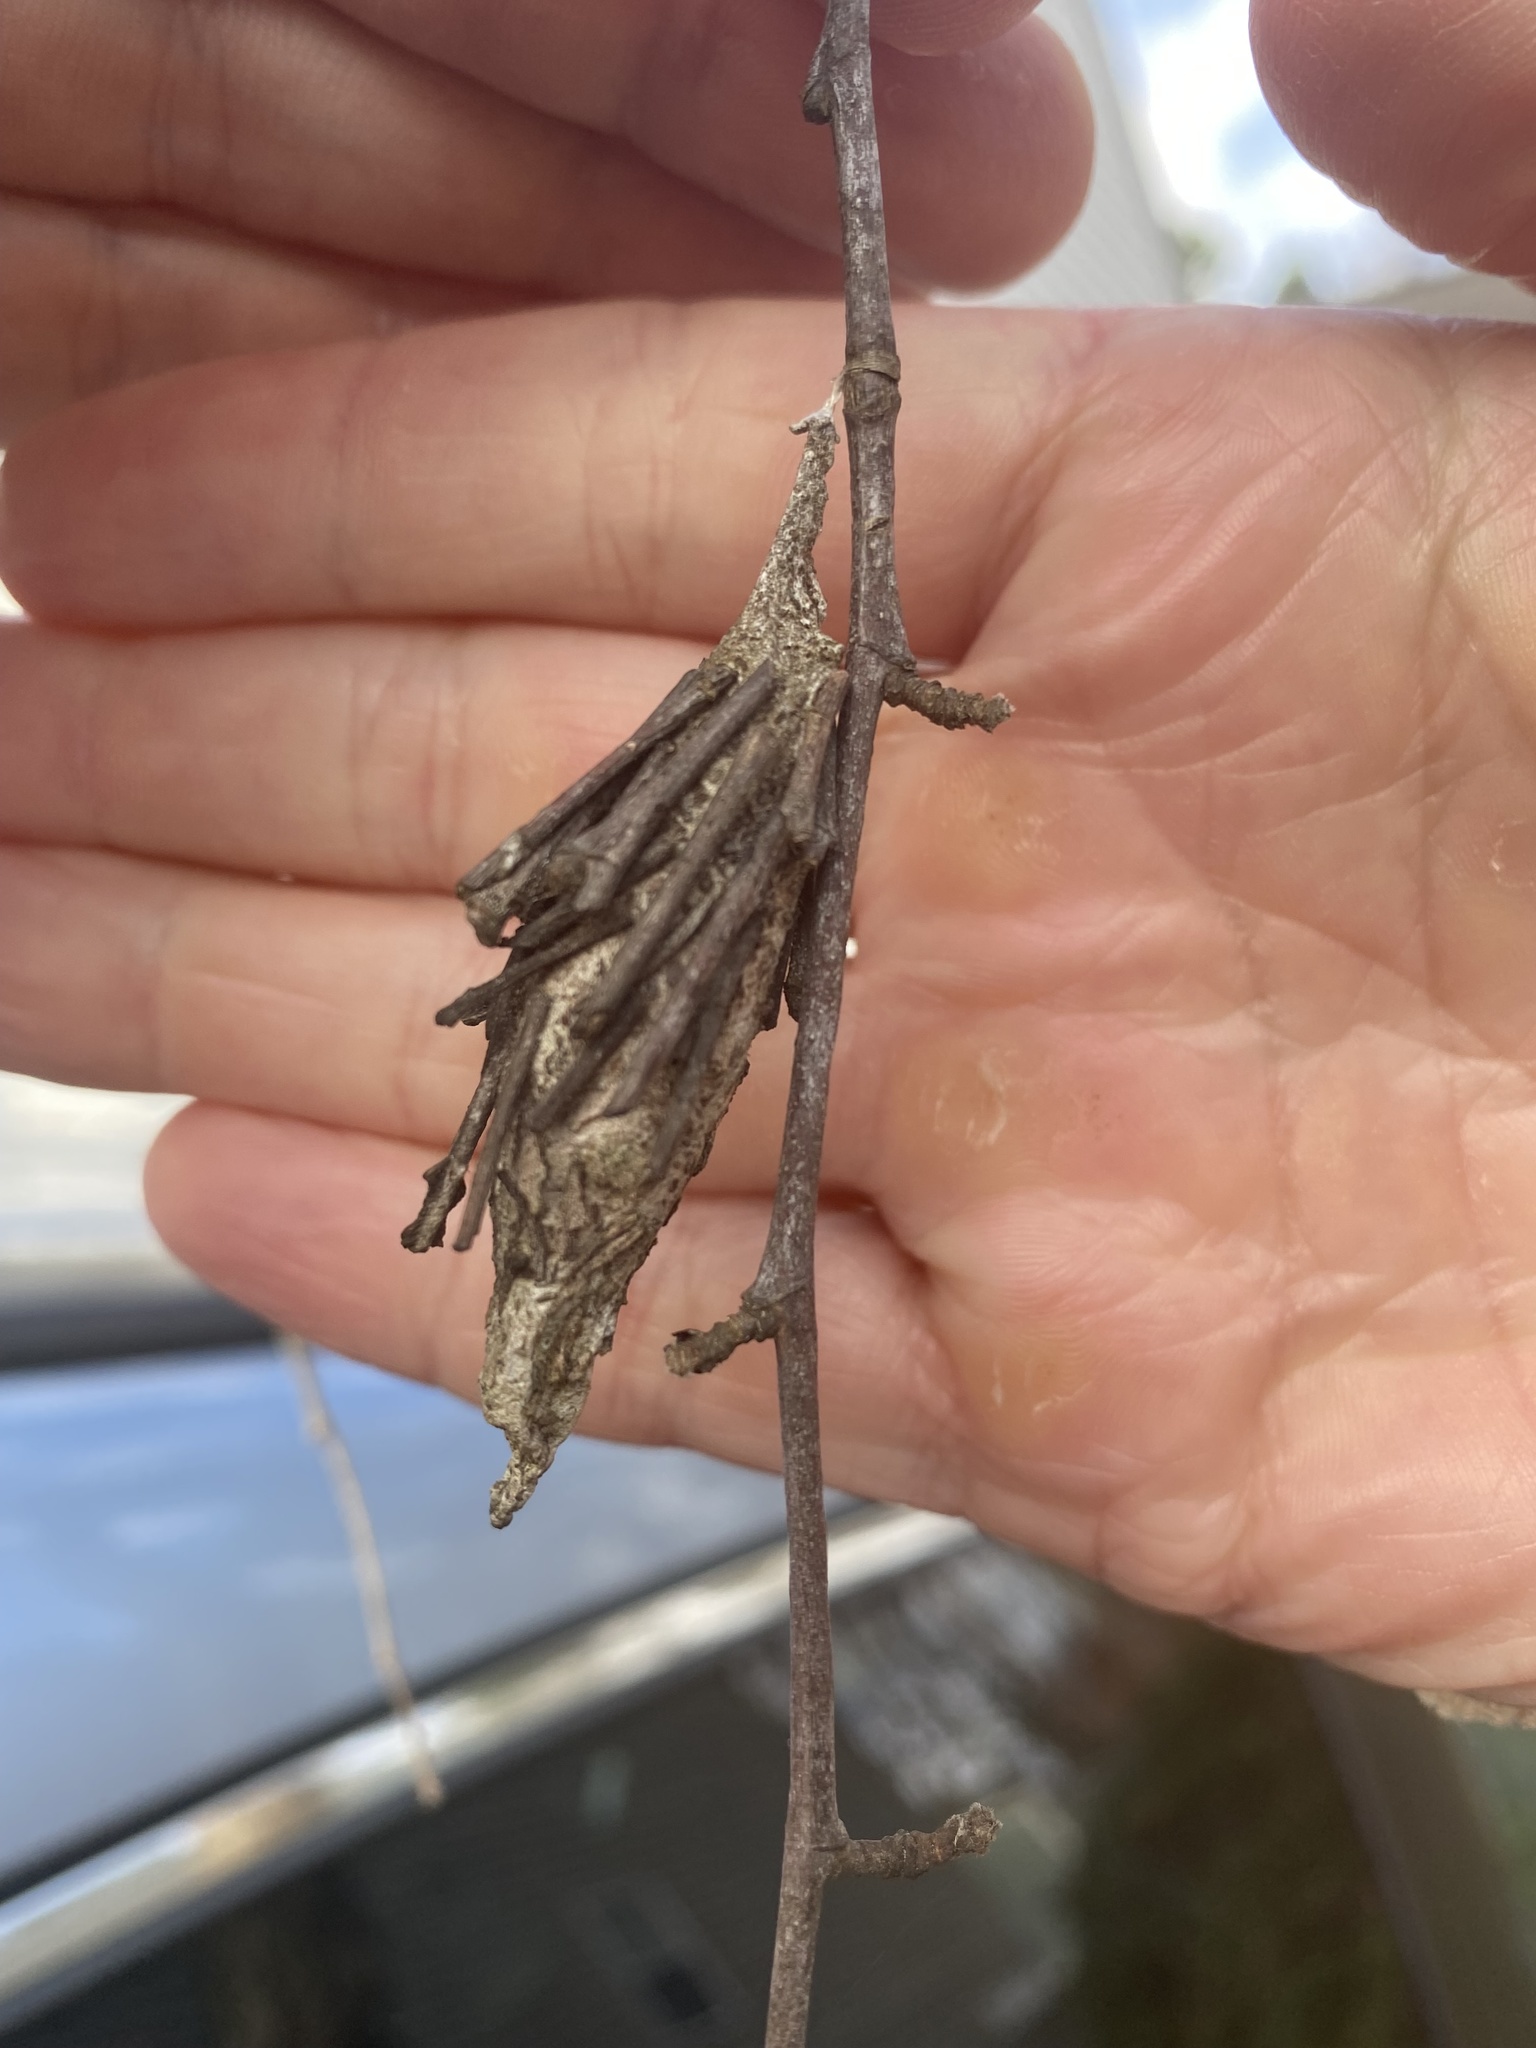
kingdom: Animalia
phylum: Arthropoda
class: Insecta
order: Lepidoptera
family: Psychidae
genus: Thyridopteryx
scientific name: Thyridopteryx ephemeraeformis
